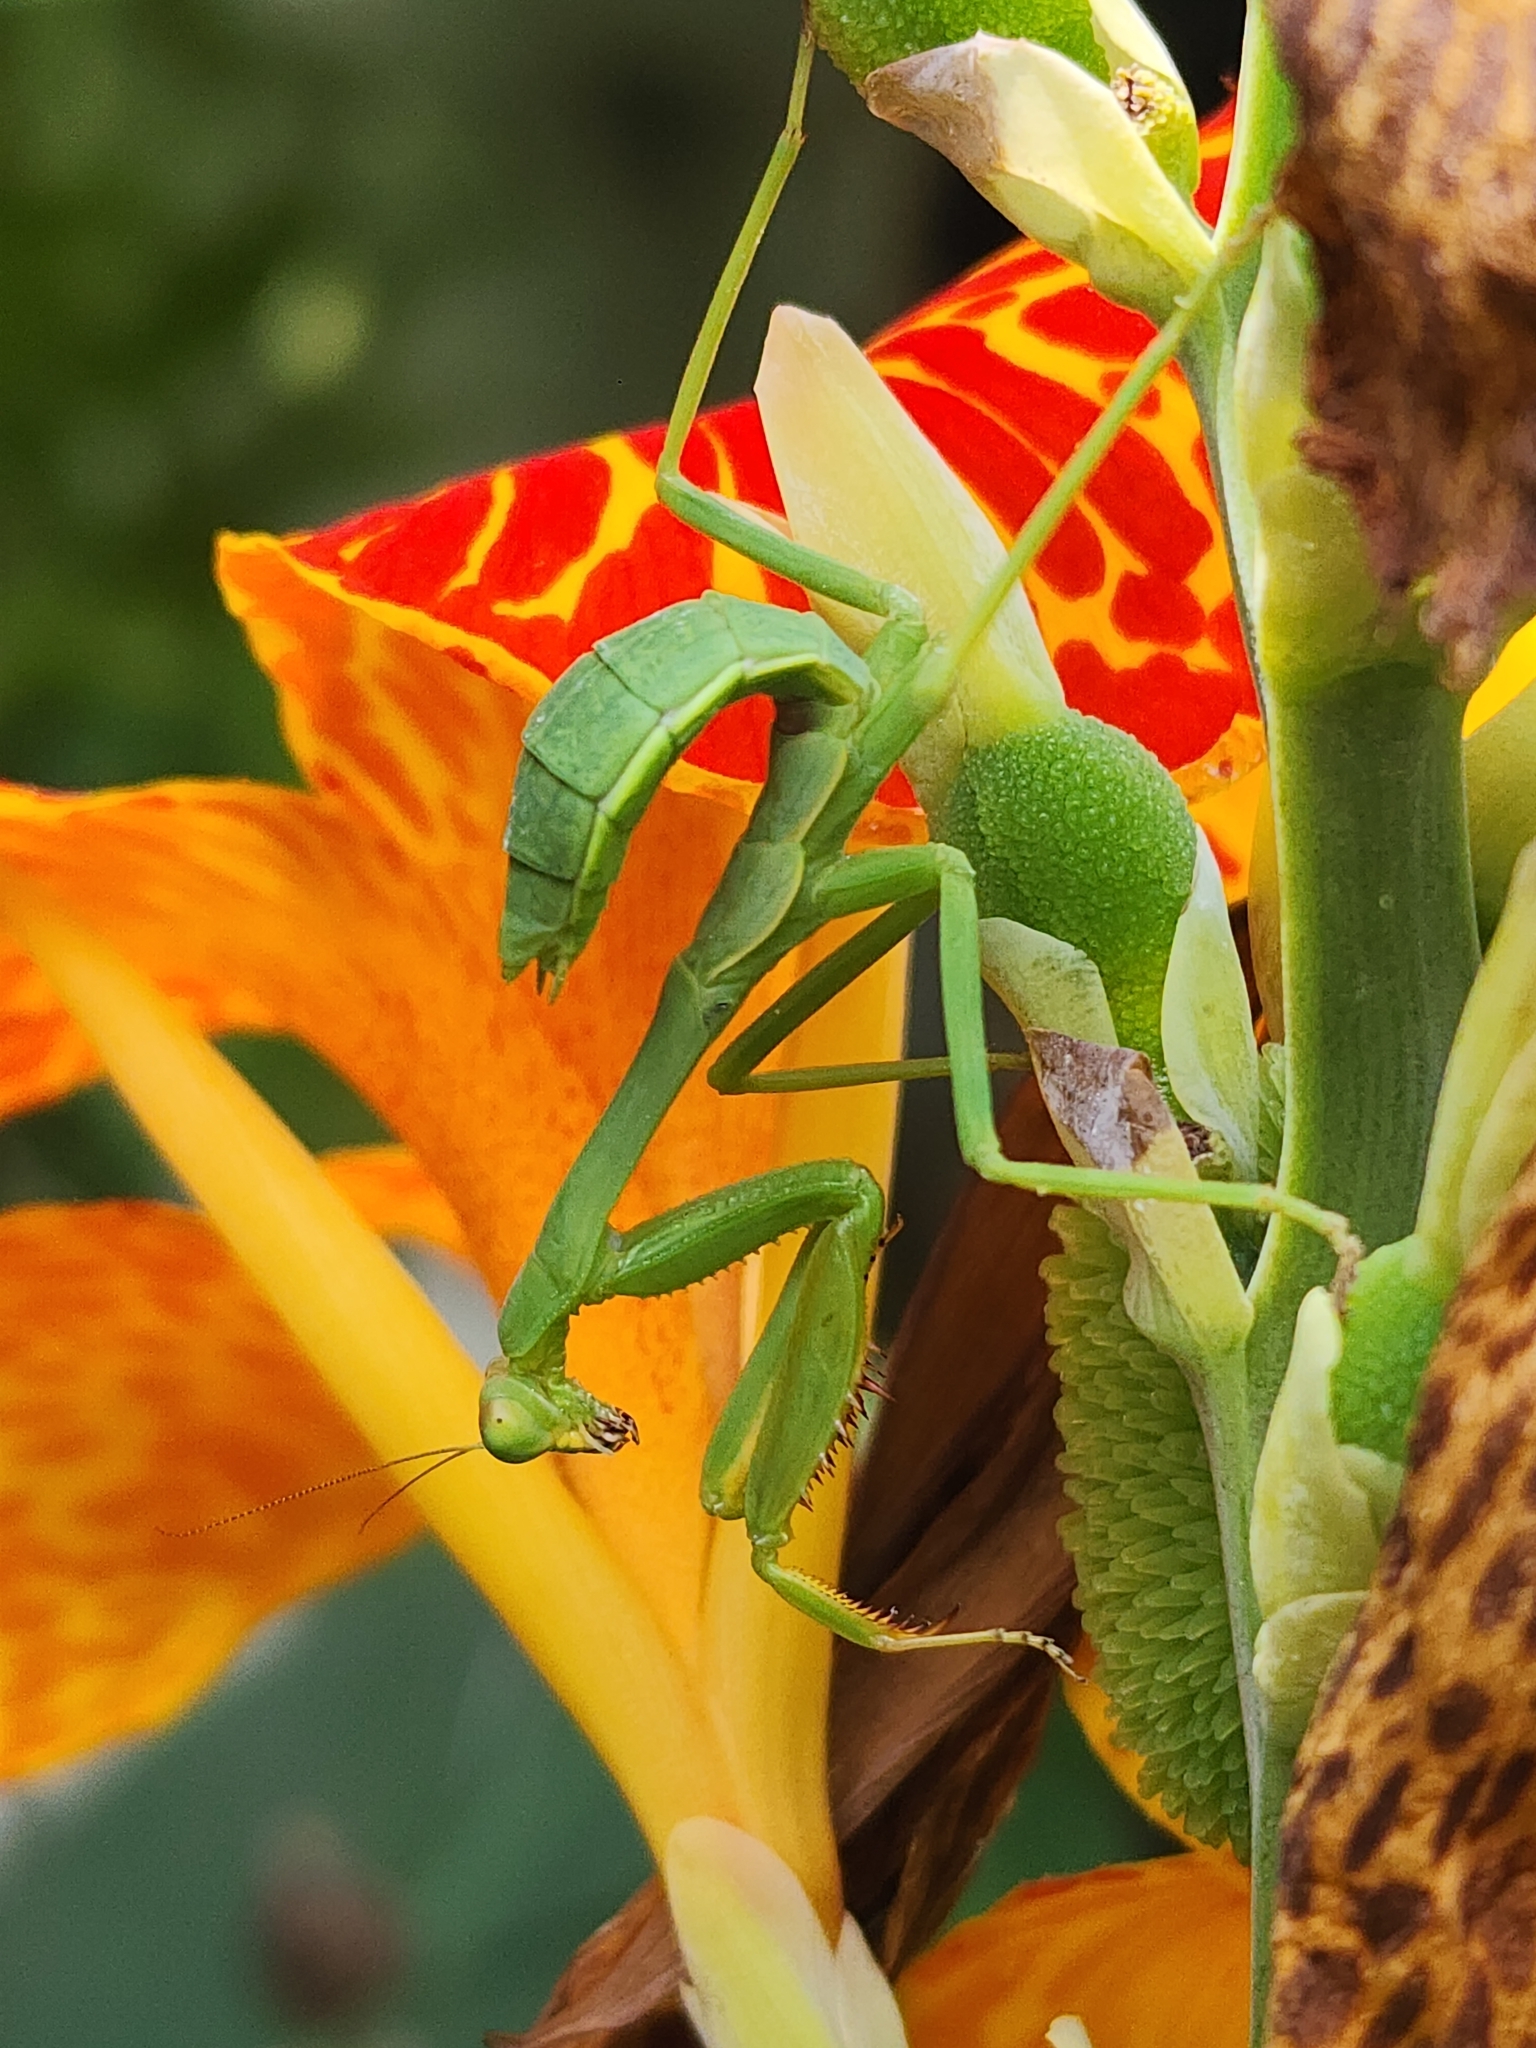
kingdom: Animalia
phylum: Arthropoda
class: Insecta
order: Mantodea
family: Mantidae
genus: Stagmatoptera
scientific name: Stagmatoptera hyaloptera
